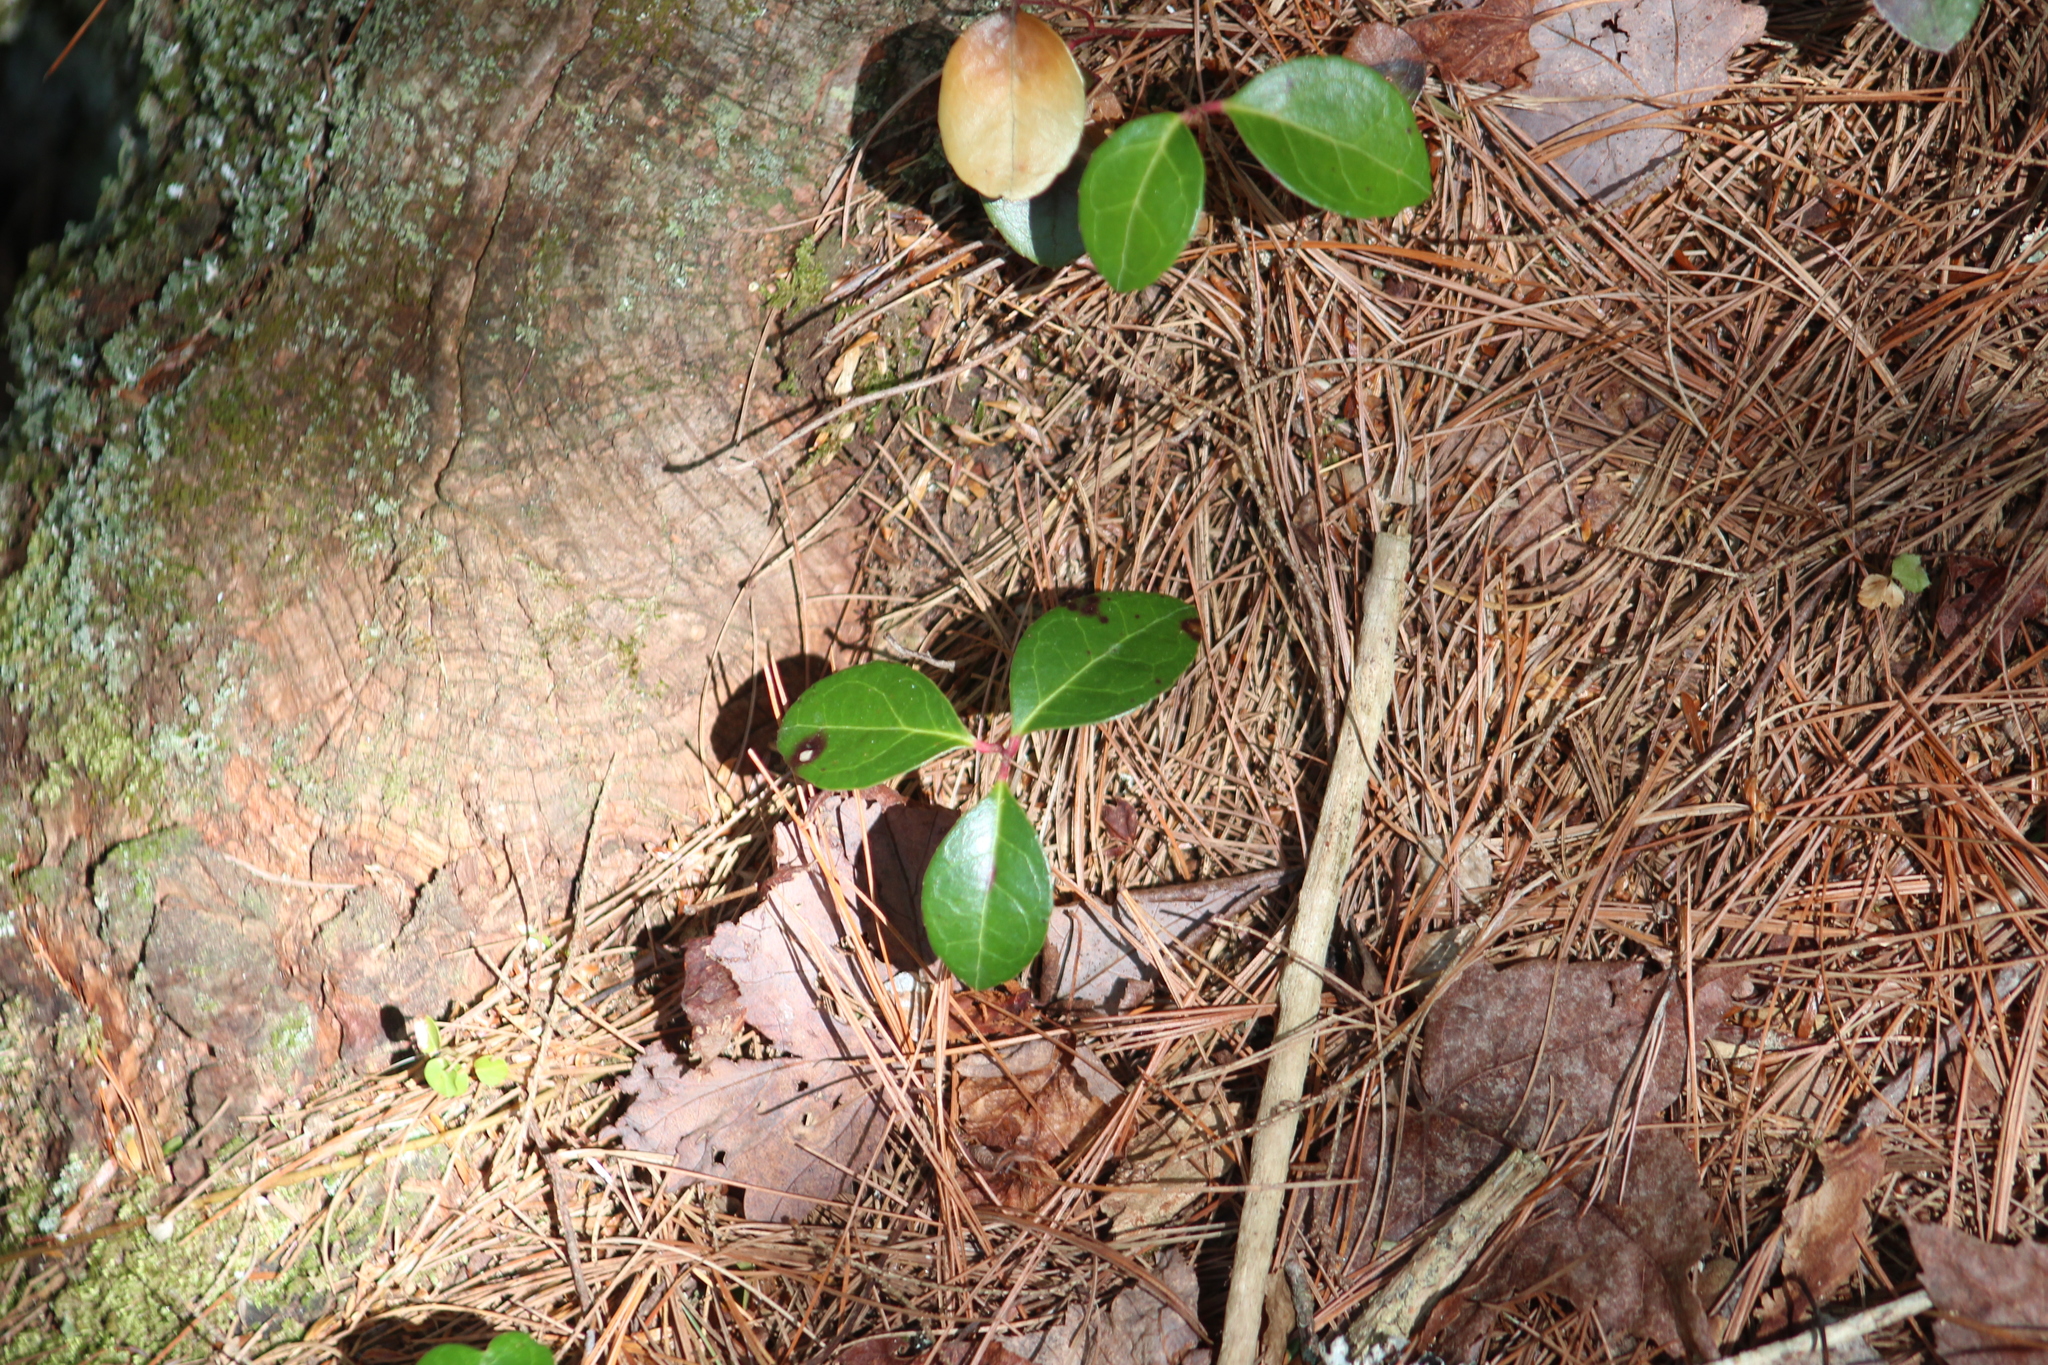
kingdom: Plantae
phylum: Tracheophyta
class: Magnoliopsida
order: Ericales
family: Ericaceae
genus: Gaultheria
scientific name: Gaultheria procumbens
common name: Checkerberry
